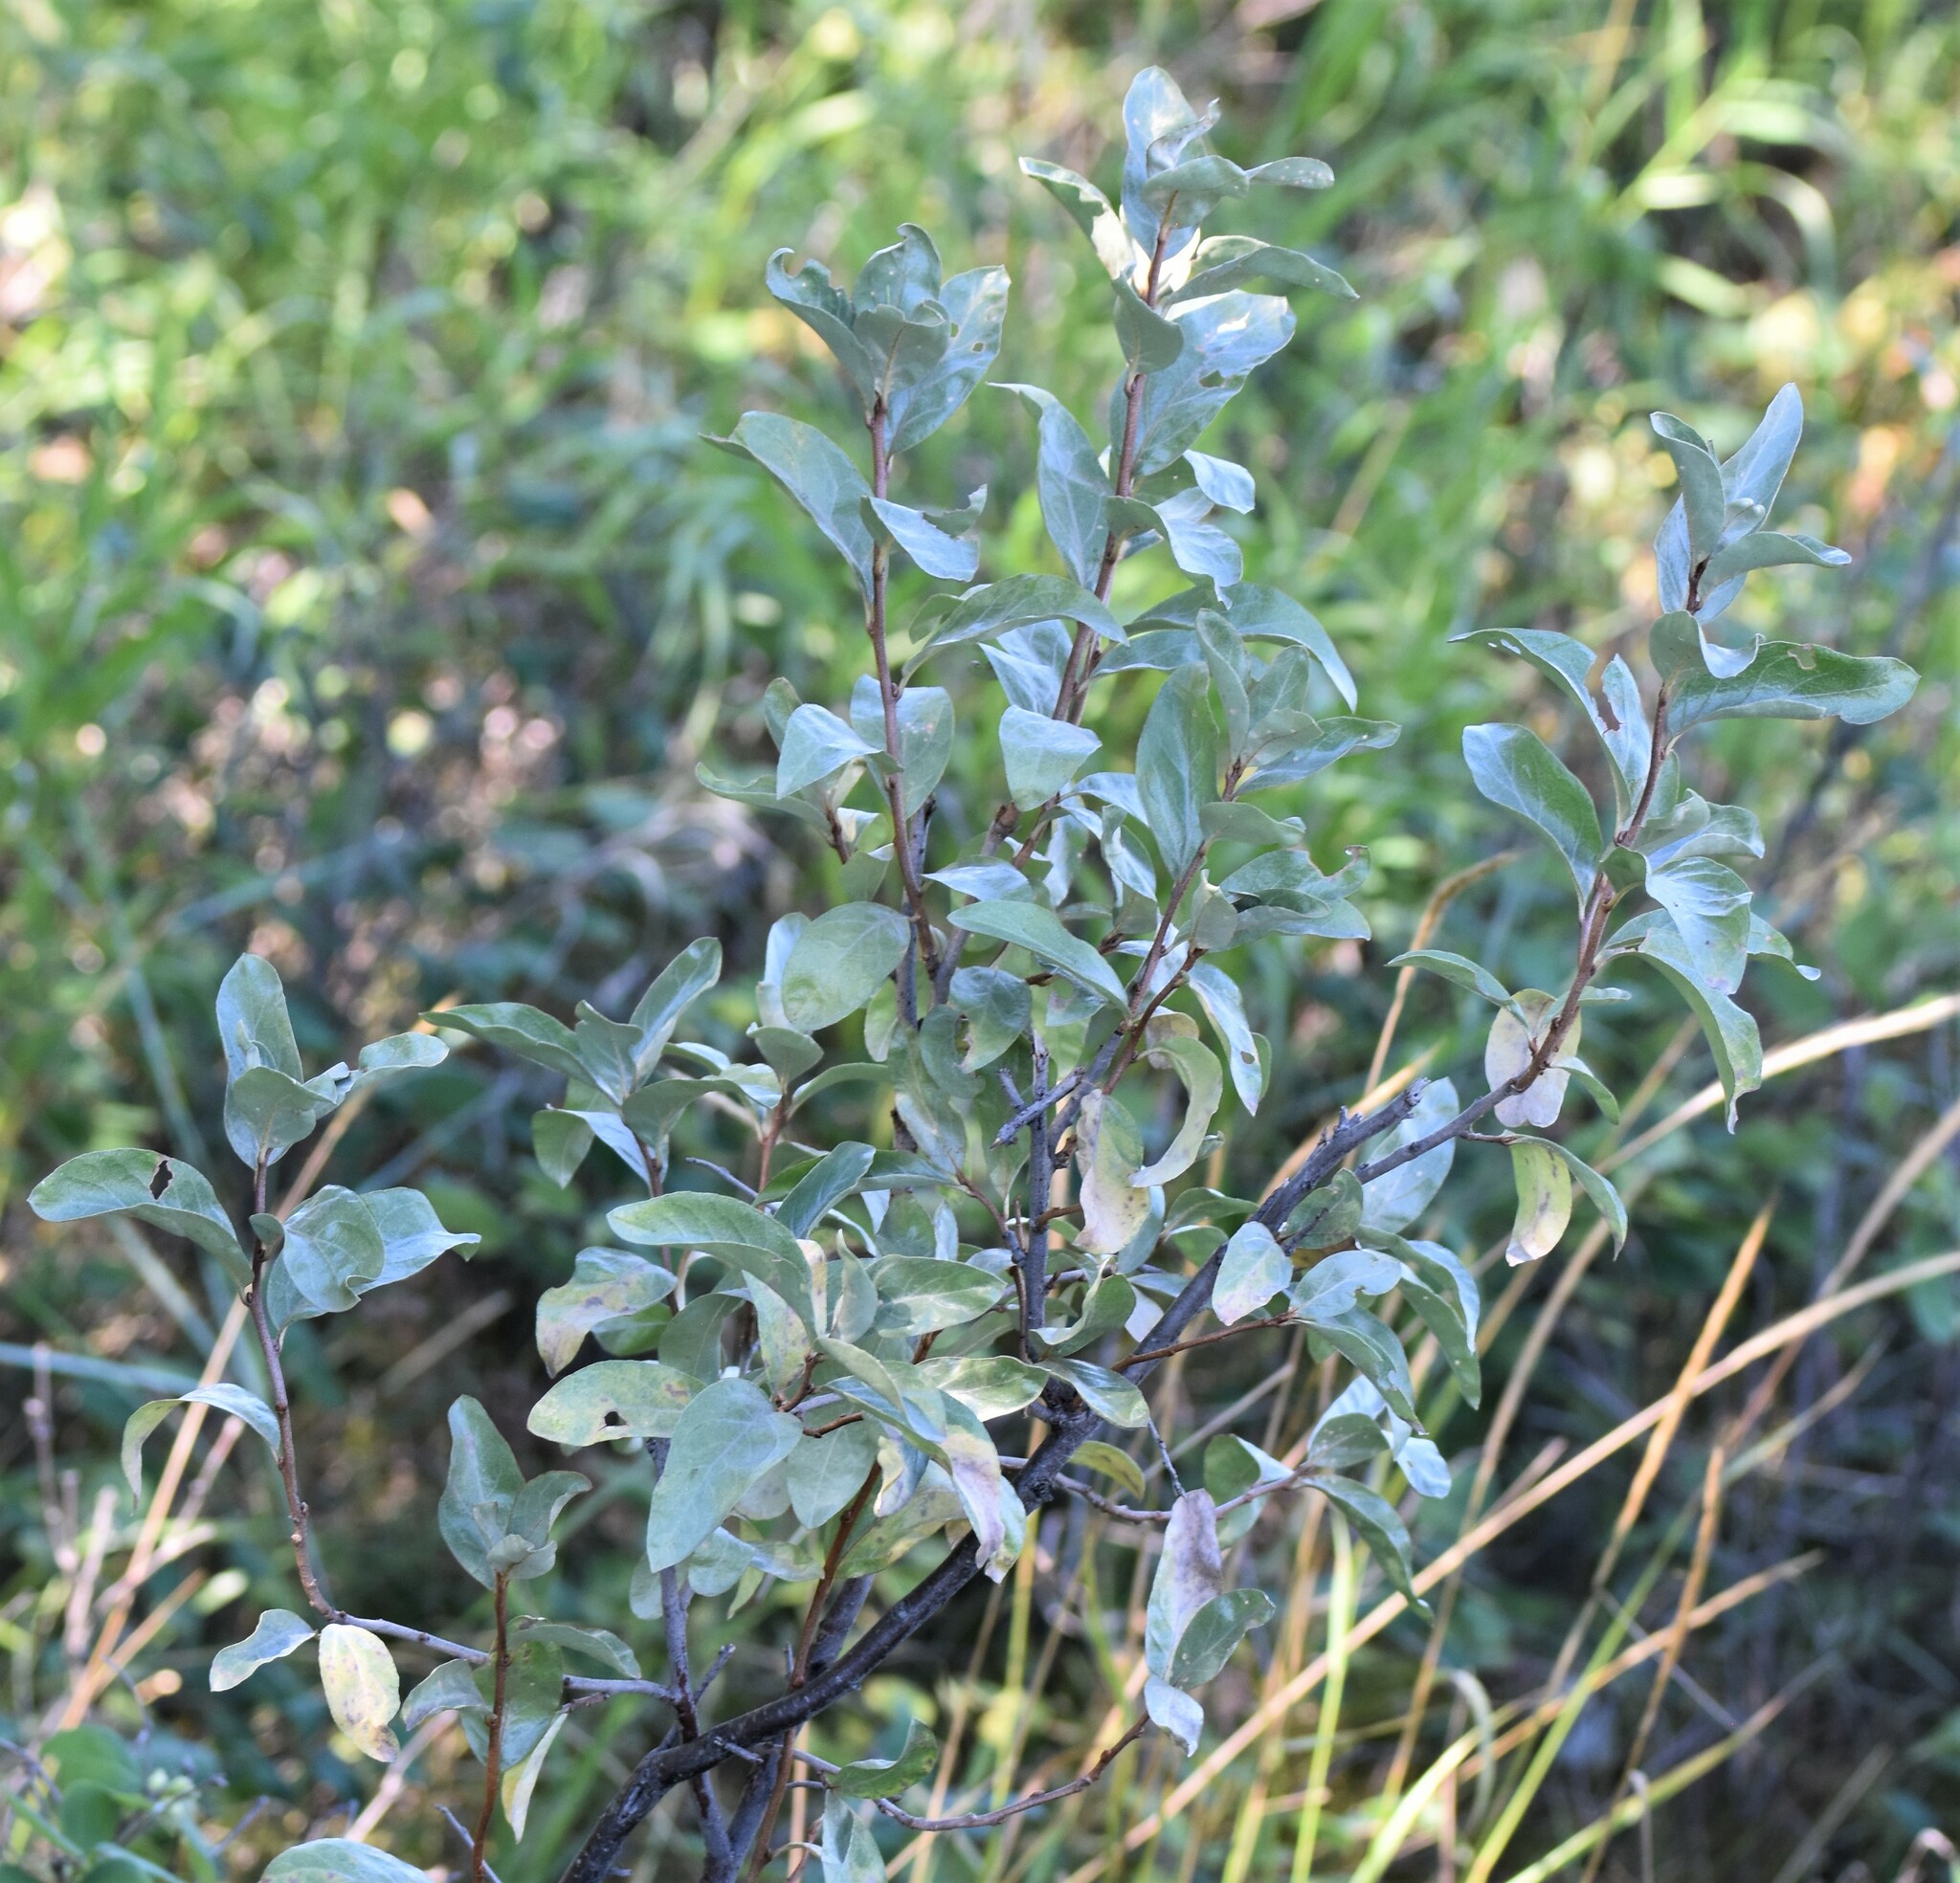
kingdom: Plantae
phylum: Tracheophyta
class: Magnoliopsida
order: Rosales
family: Elaeagnaceae
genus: Elaeagnus
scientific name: Elaeagnus commutata
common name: Silverberry
